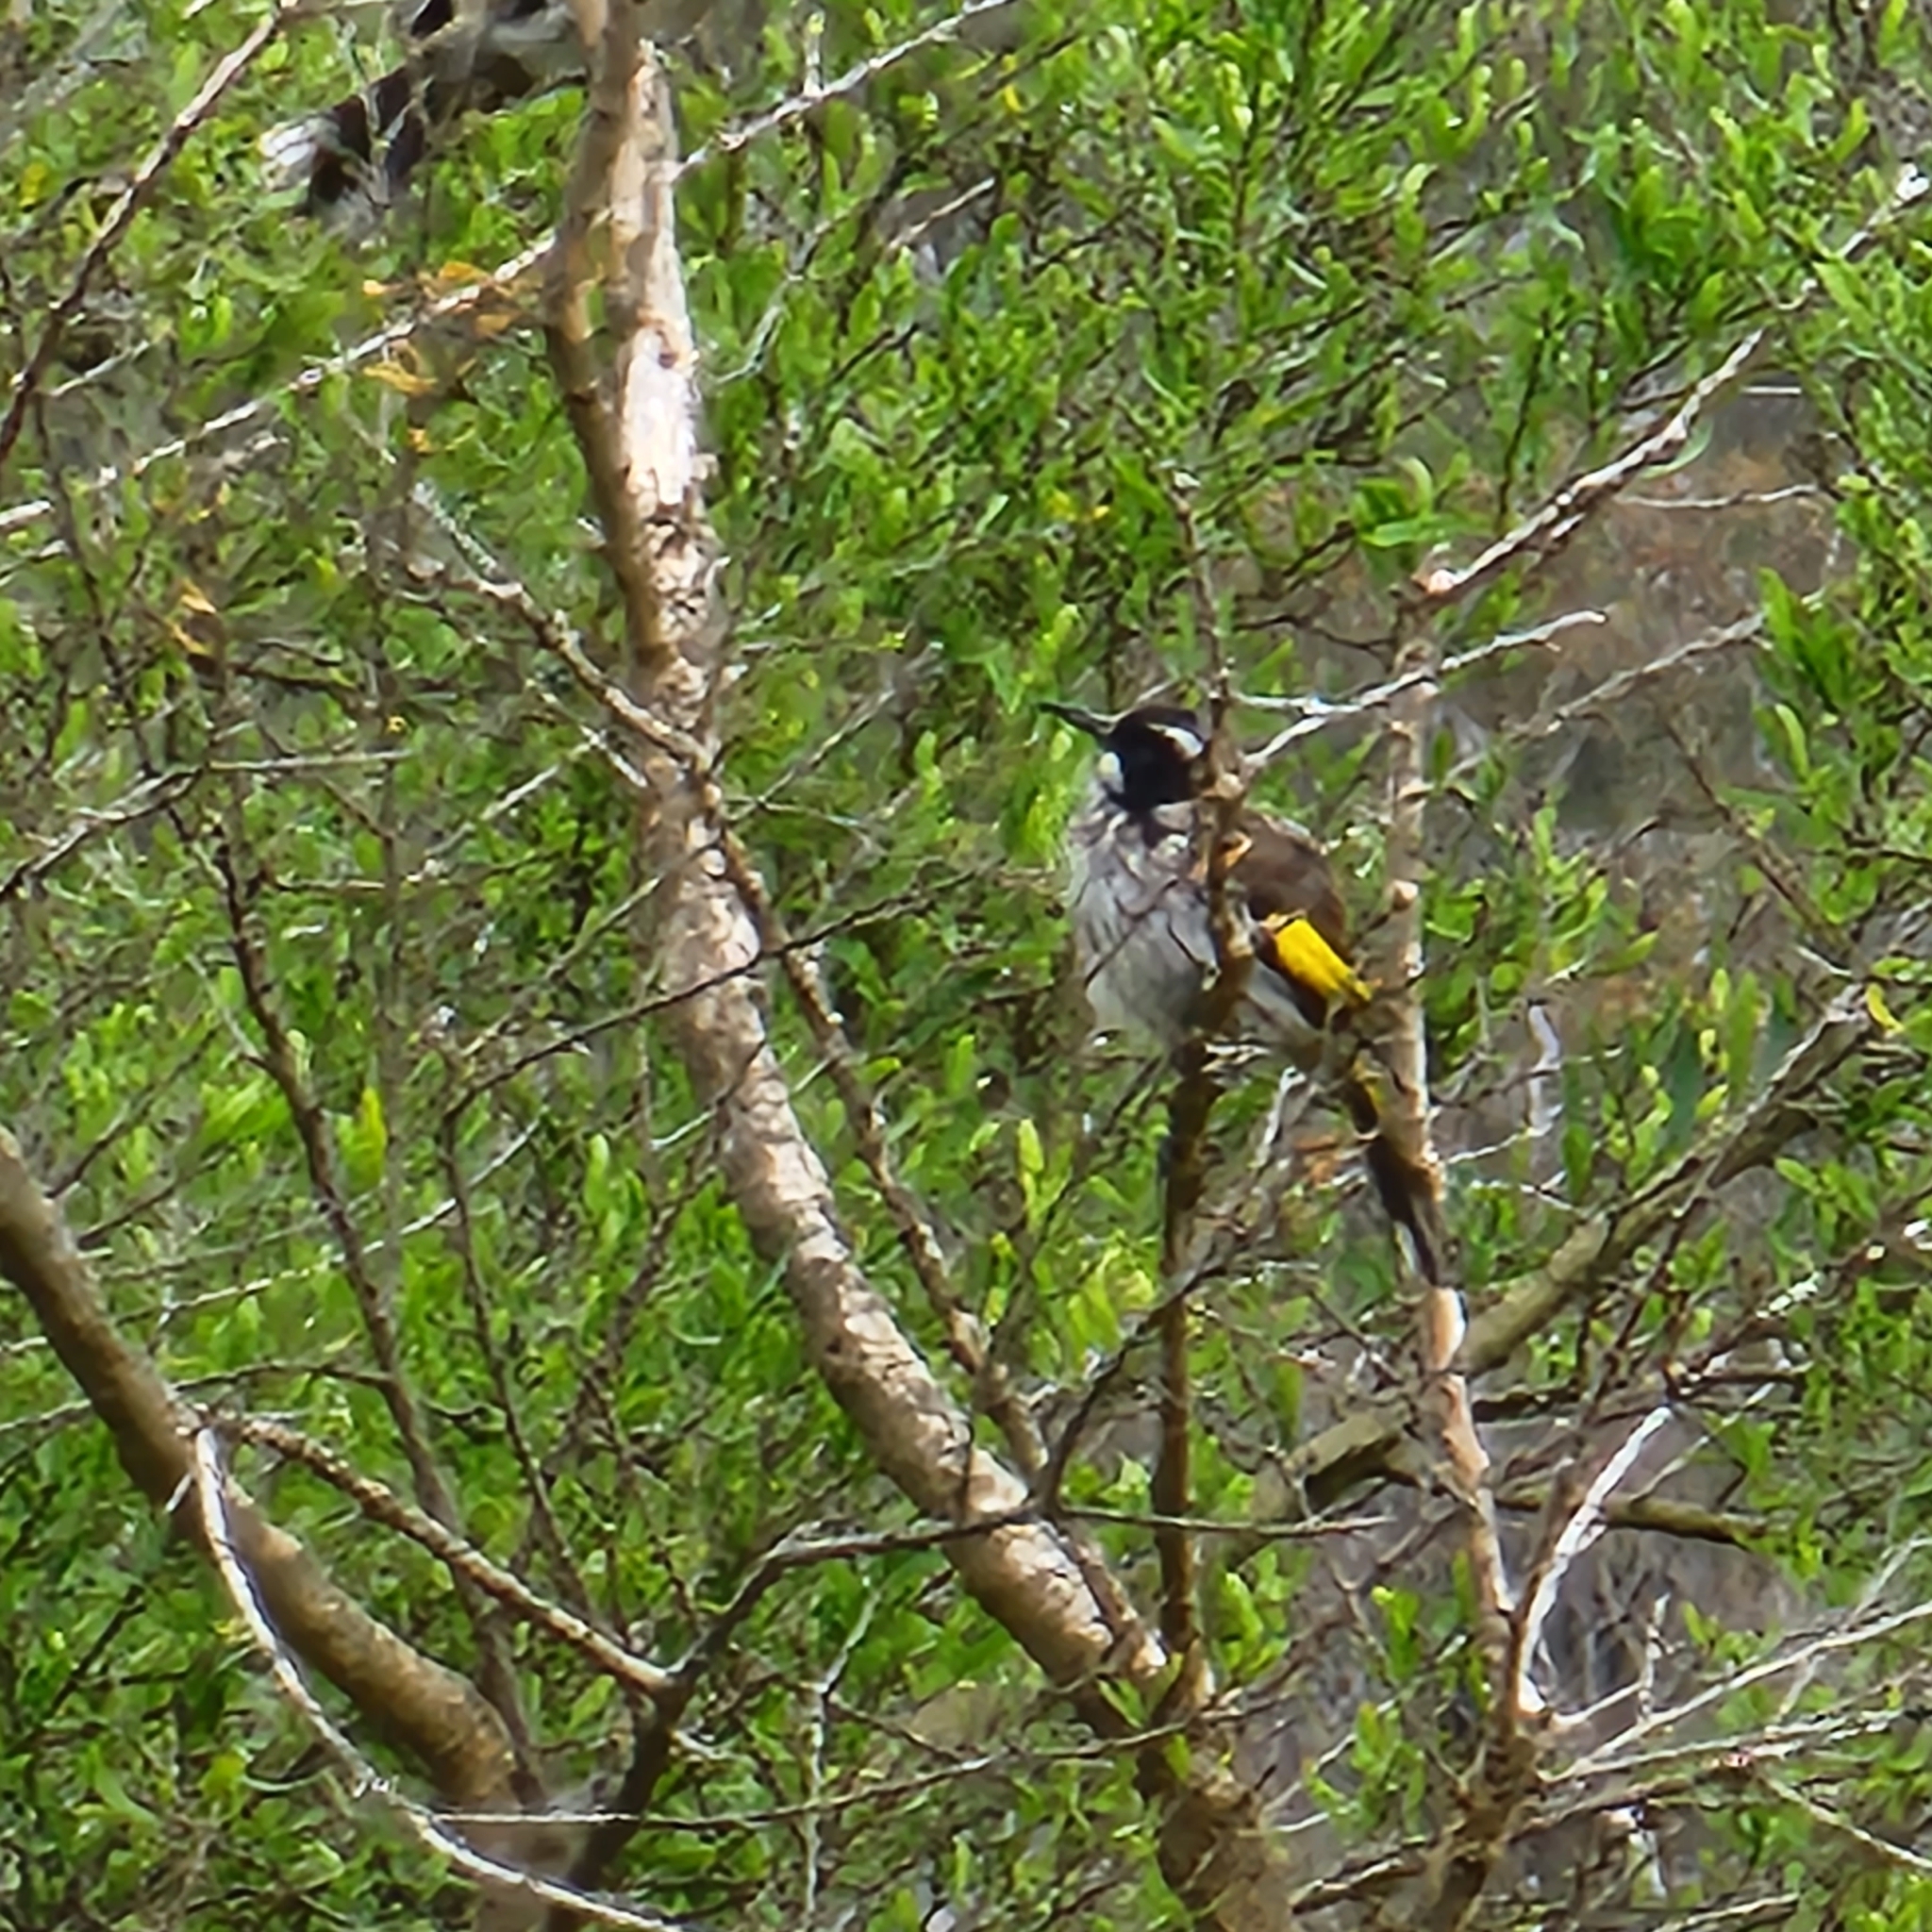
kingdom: Animalia
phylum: Chordata
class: Aves
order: Passeriformes
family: Meliphagidae
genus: Phylidonyris
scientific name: Phylidonyris novaehollandiae
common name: New holland honeyeater
